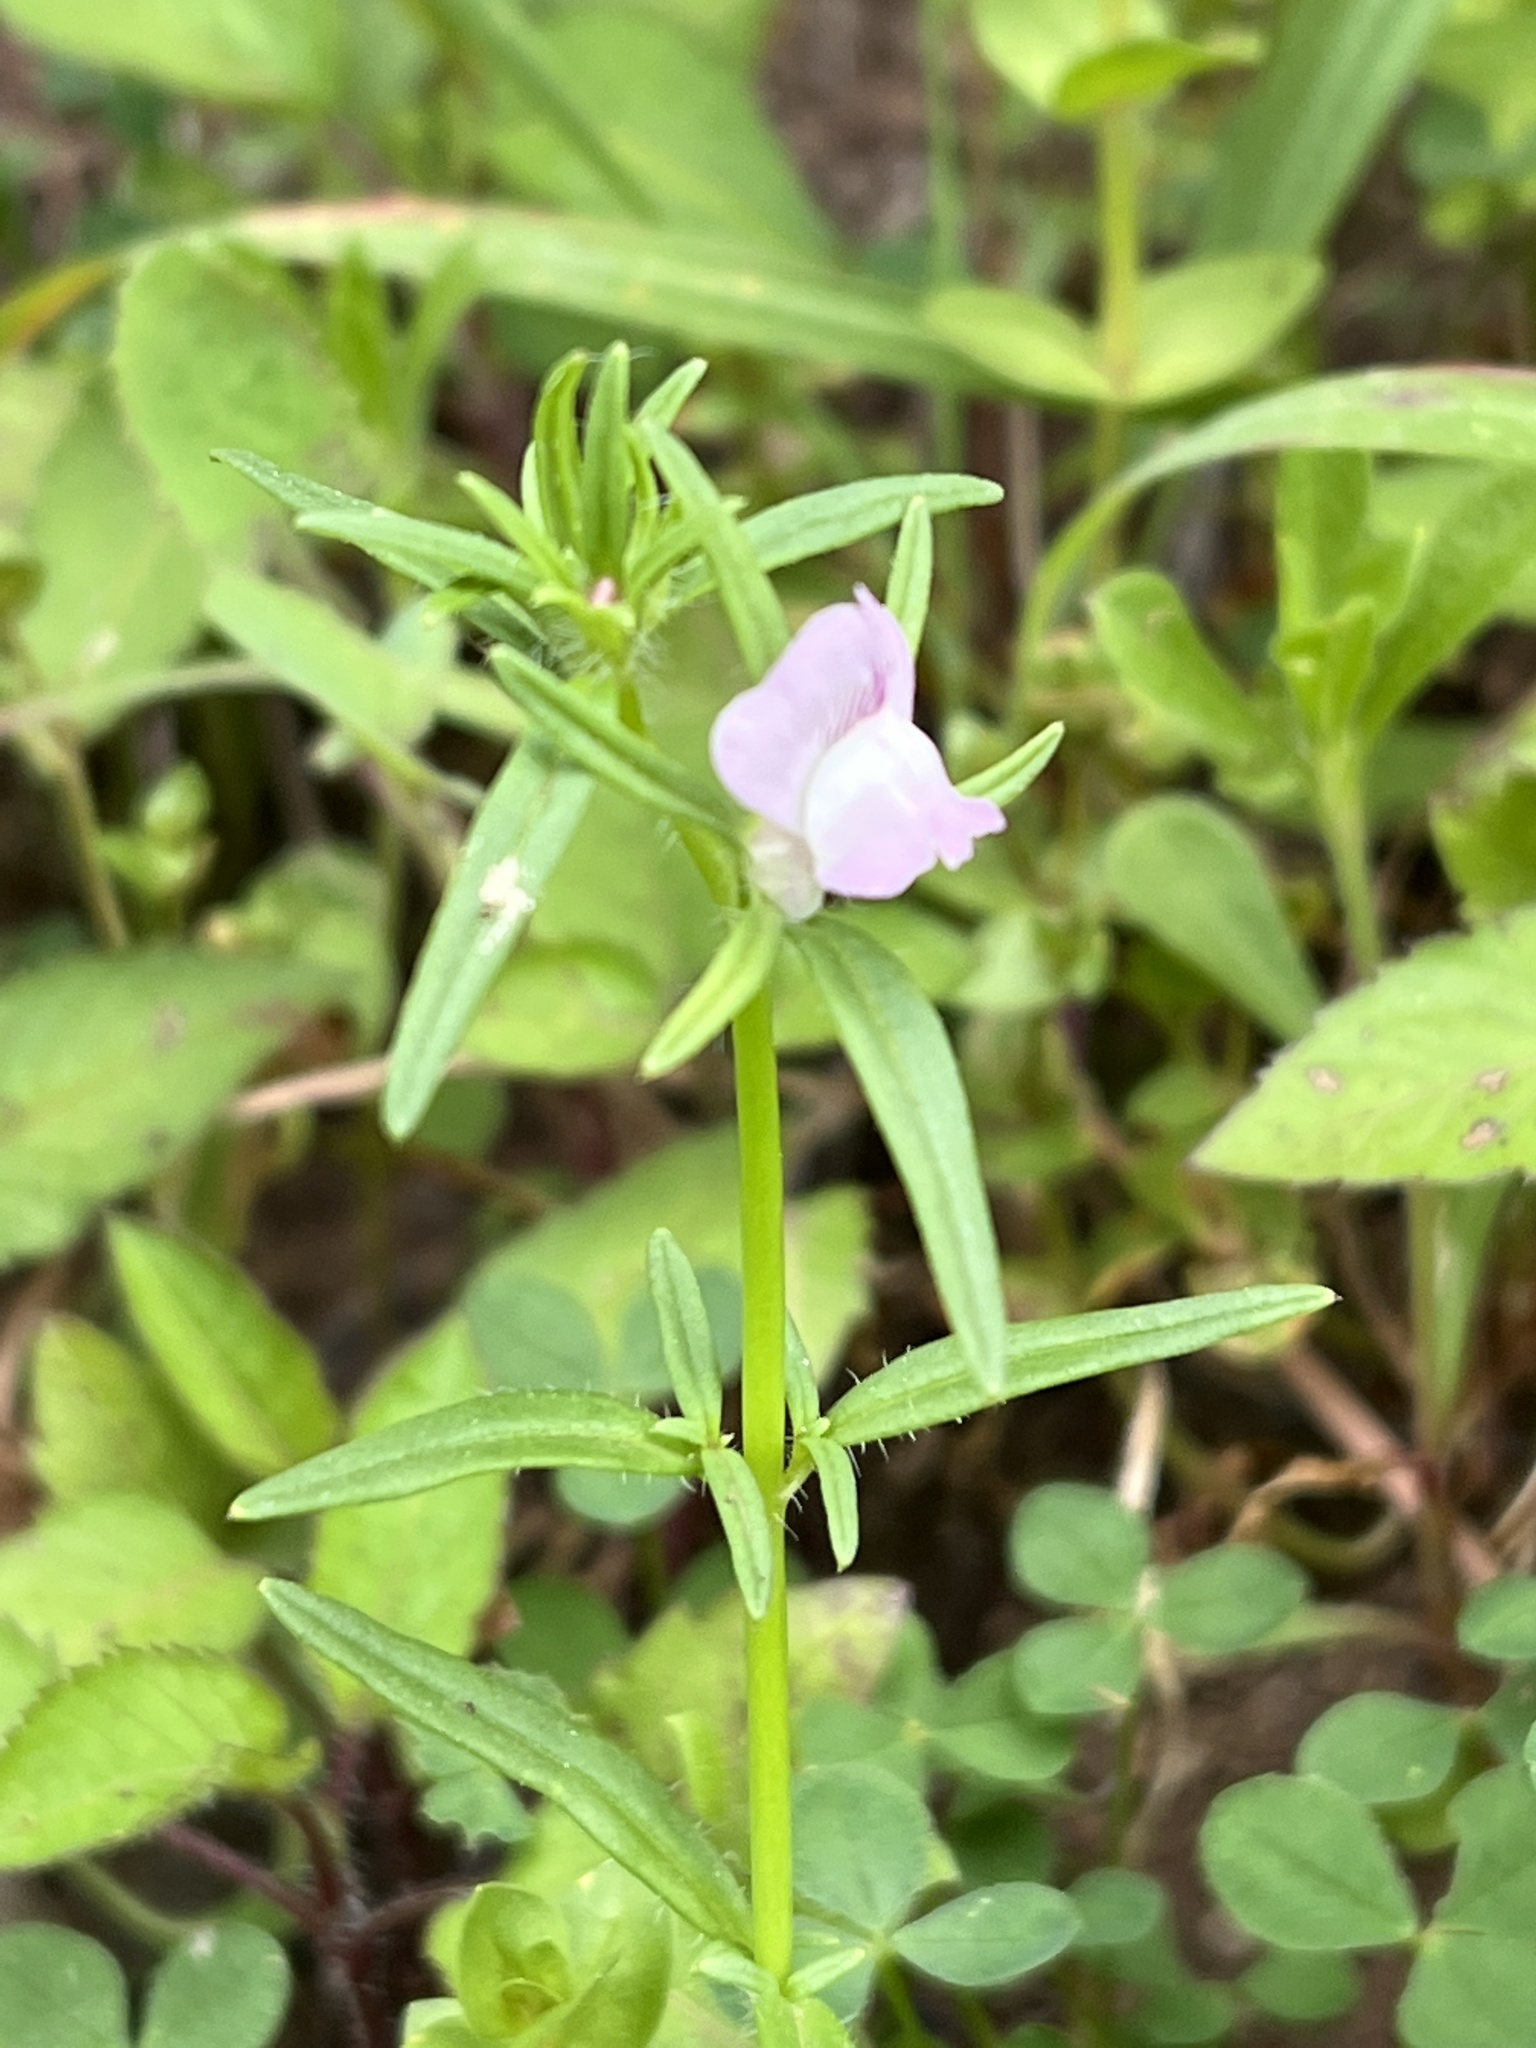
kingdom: Plantae
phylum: Tracheophyta
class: Magnoliopsida
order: Lamiales
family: Plantaginaceae
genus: Misopates
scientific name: Misopates orontium
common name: Weasel's-snout
